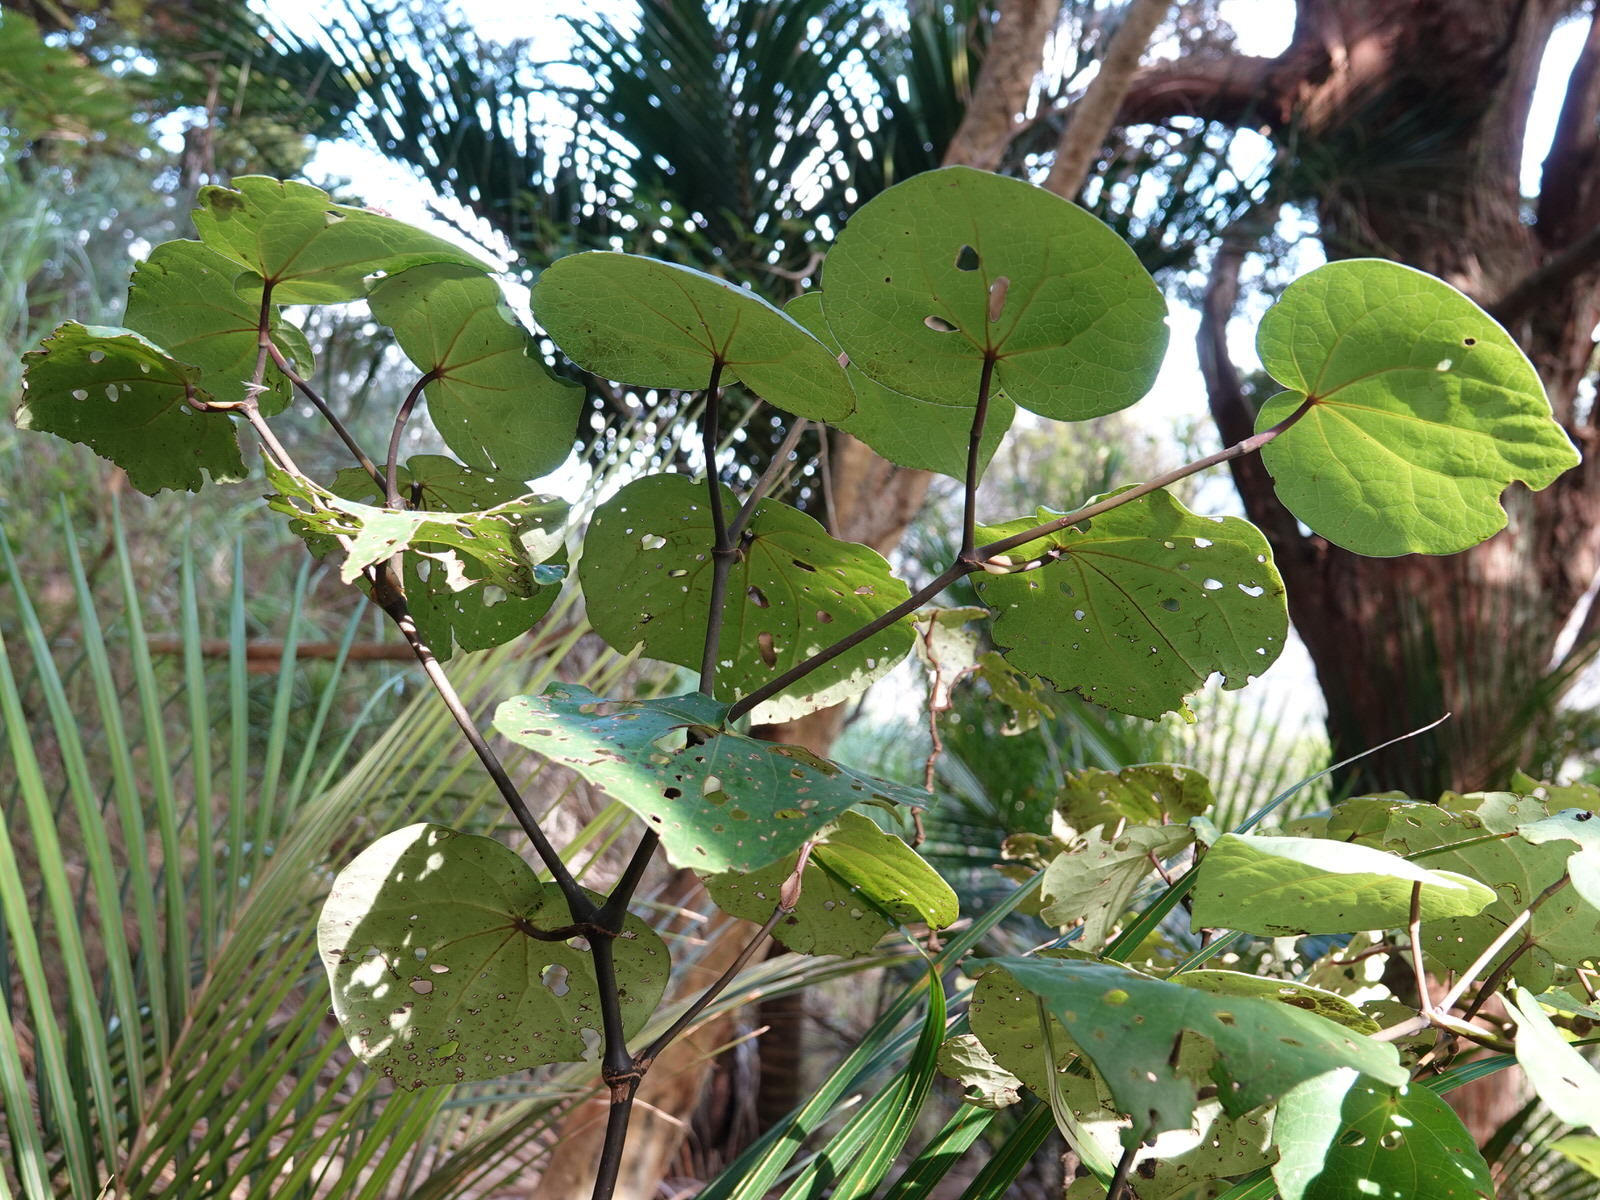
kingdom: Plantae
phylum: Tracheophyta
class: Magnoliopsida
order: Piperales
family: Piperaceae
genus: Macropiper
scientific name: Macropiper excelsum
